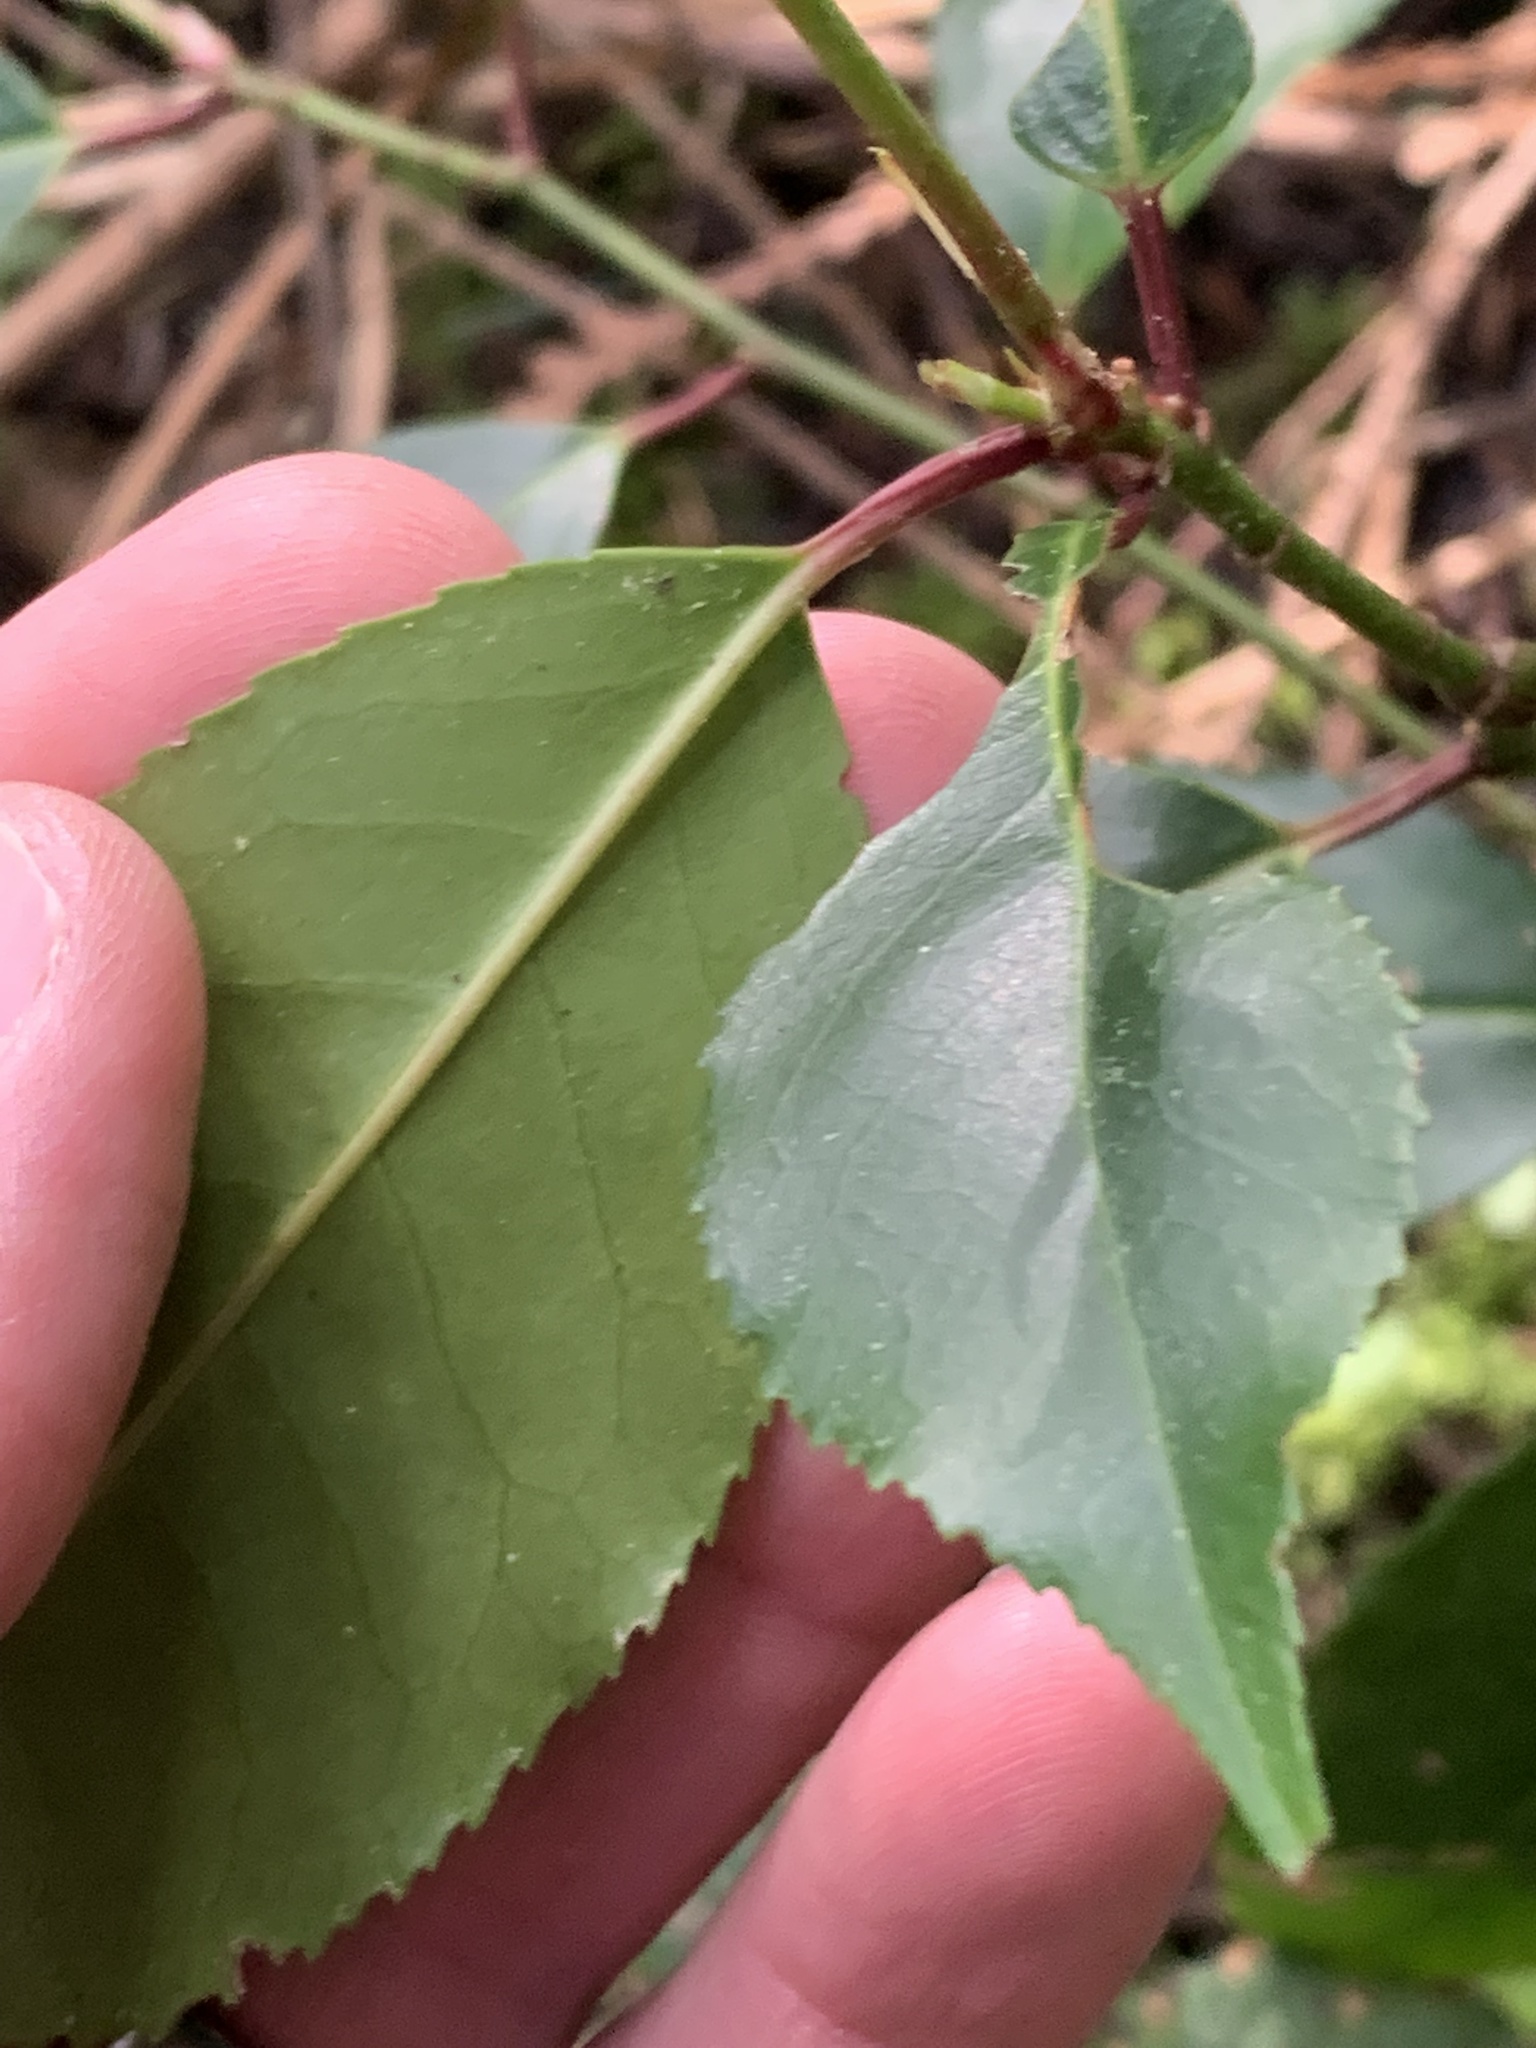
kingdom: Plantae
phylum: Tracheophyta
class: Magnoliopsida
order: Rosales
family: Rosaceae
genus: Prunus
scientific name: Prunus lusitanica
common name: Portugal laurel
